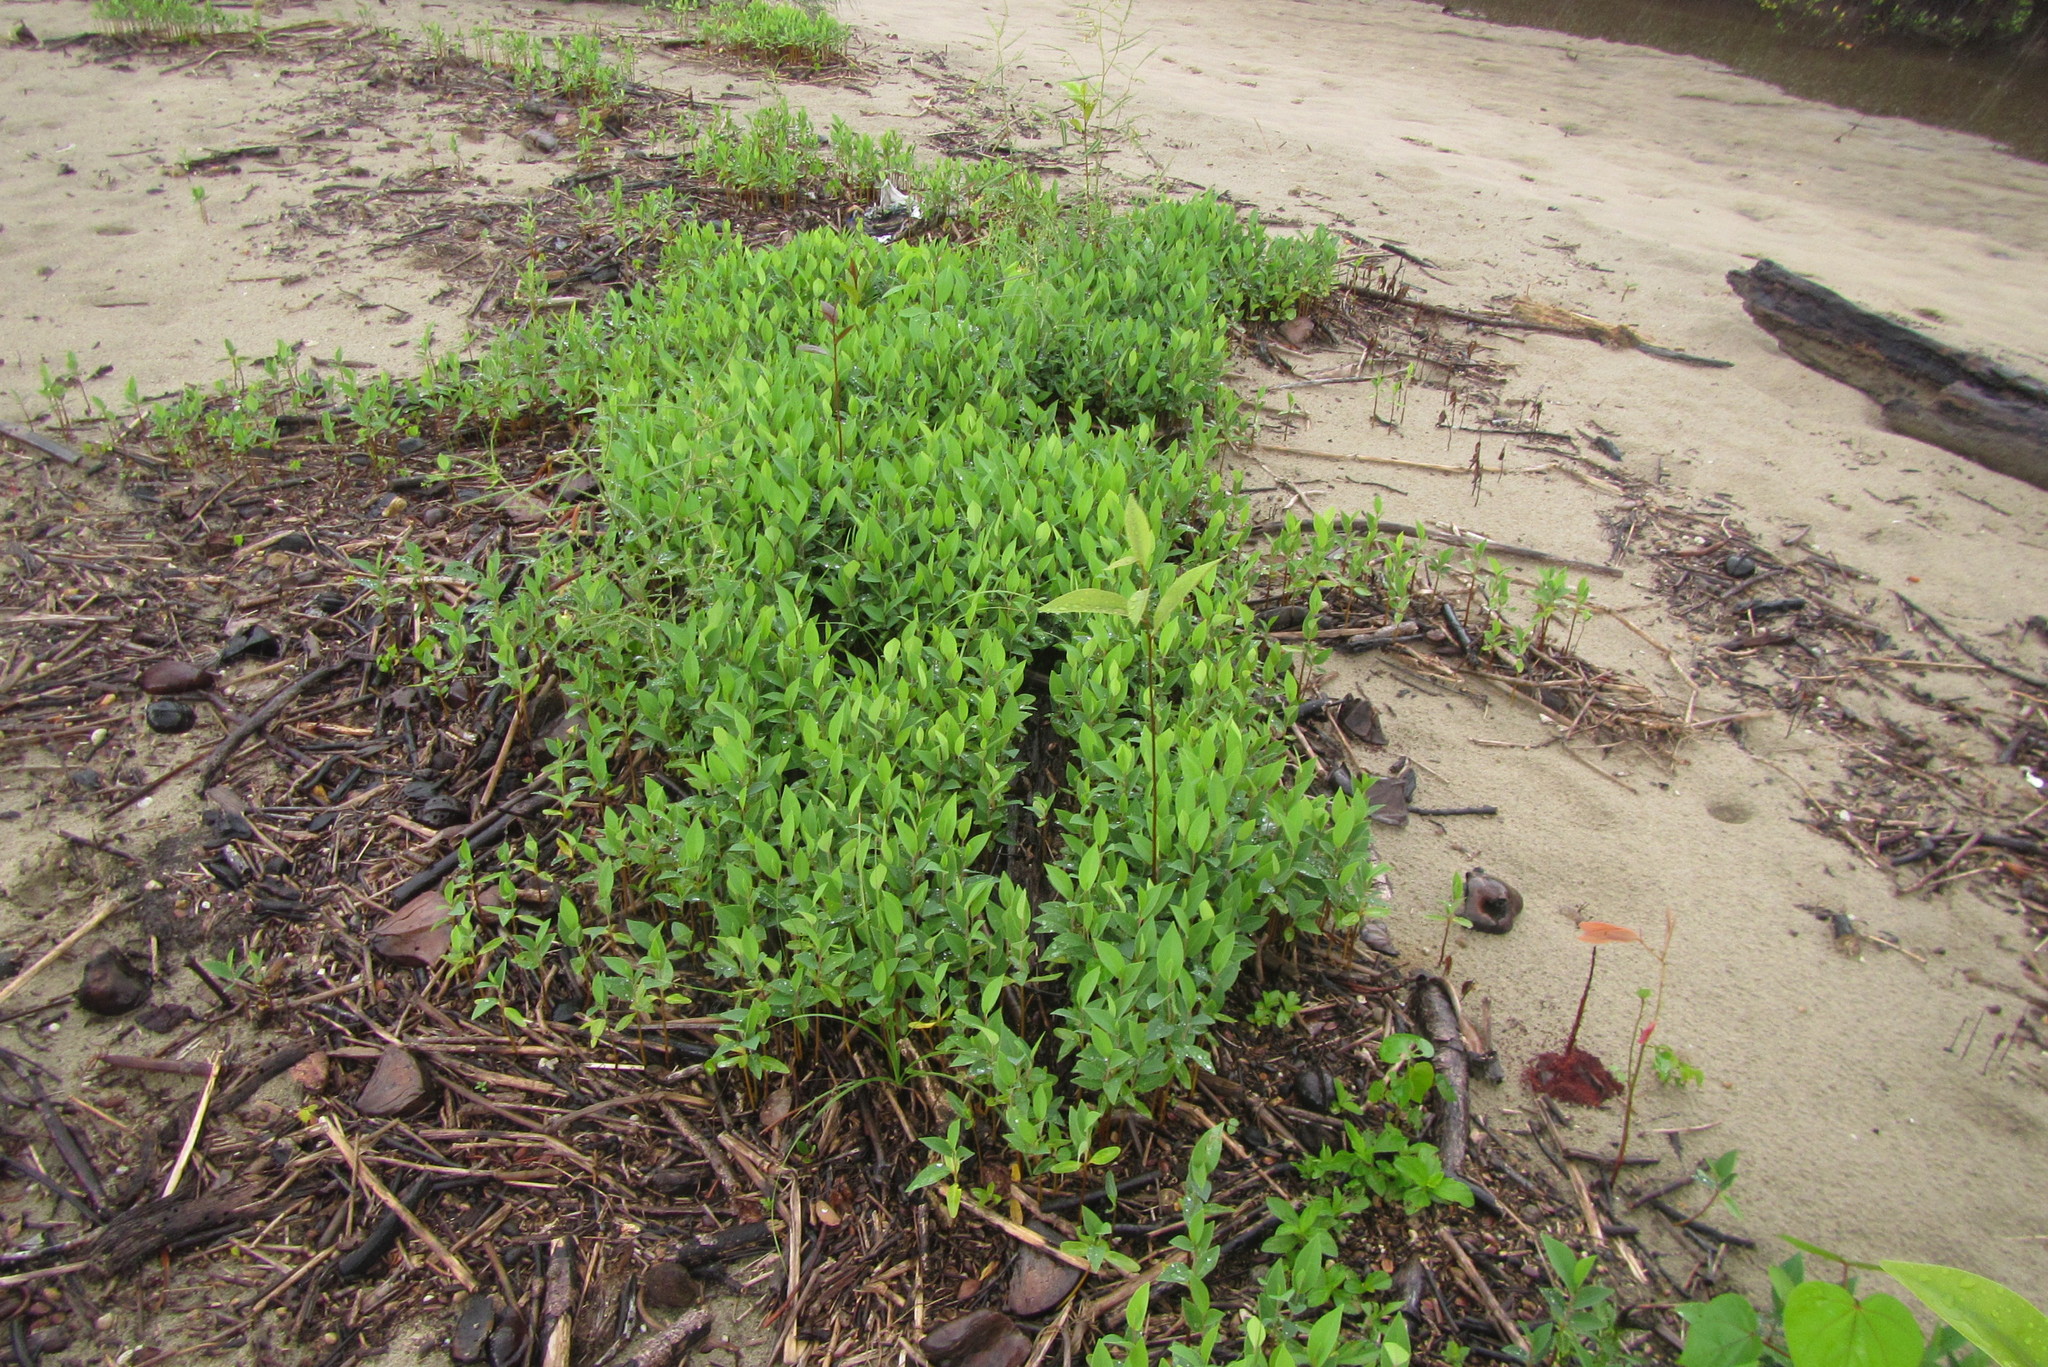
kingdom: Plantae
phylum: Tracheophyta
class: Magnoliopsida
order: Magnoliales
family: Annonaceae
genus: Annona
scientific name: Annona glabra
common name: Monkey apple
